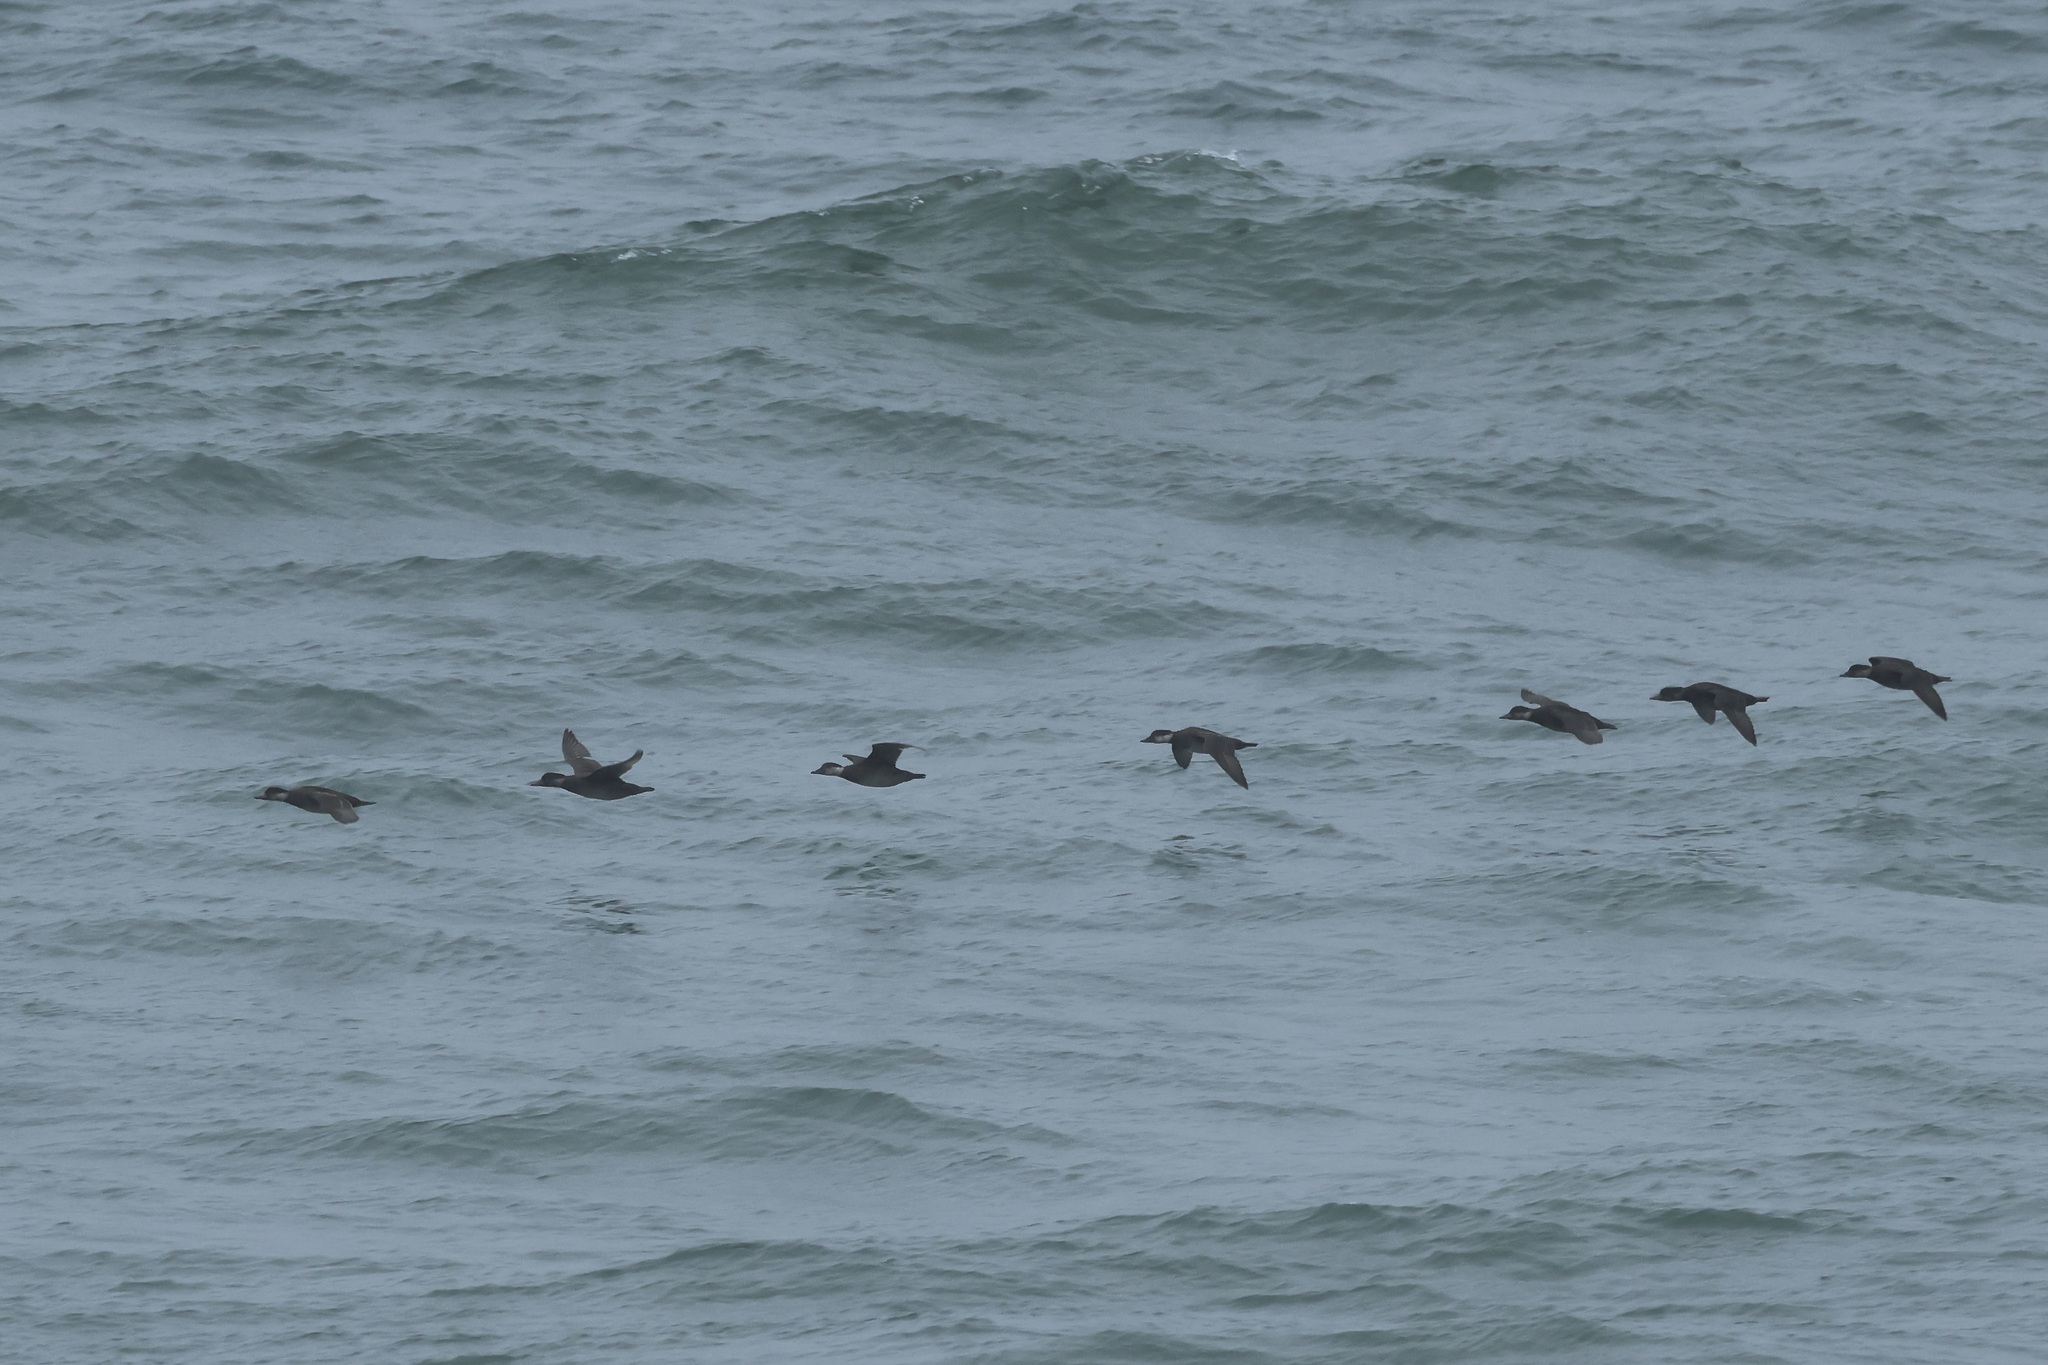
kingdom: Animalia
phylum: Chordata
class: Aves
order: Anseriformes
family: Anatidae
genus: Melanitta
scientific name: Melanitta americana
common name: Black scoter
